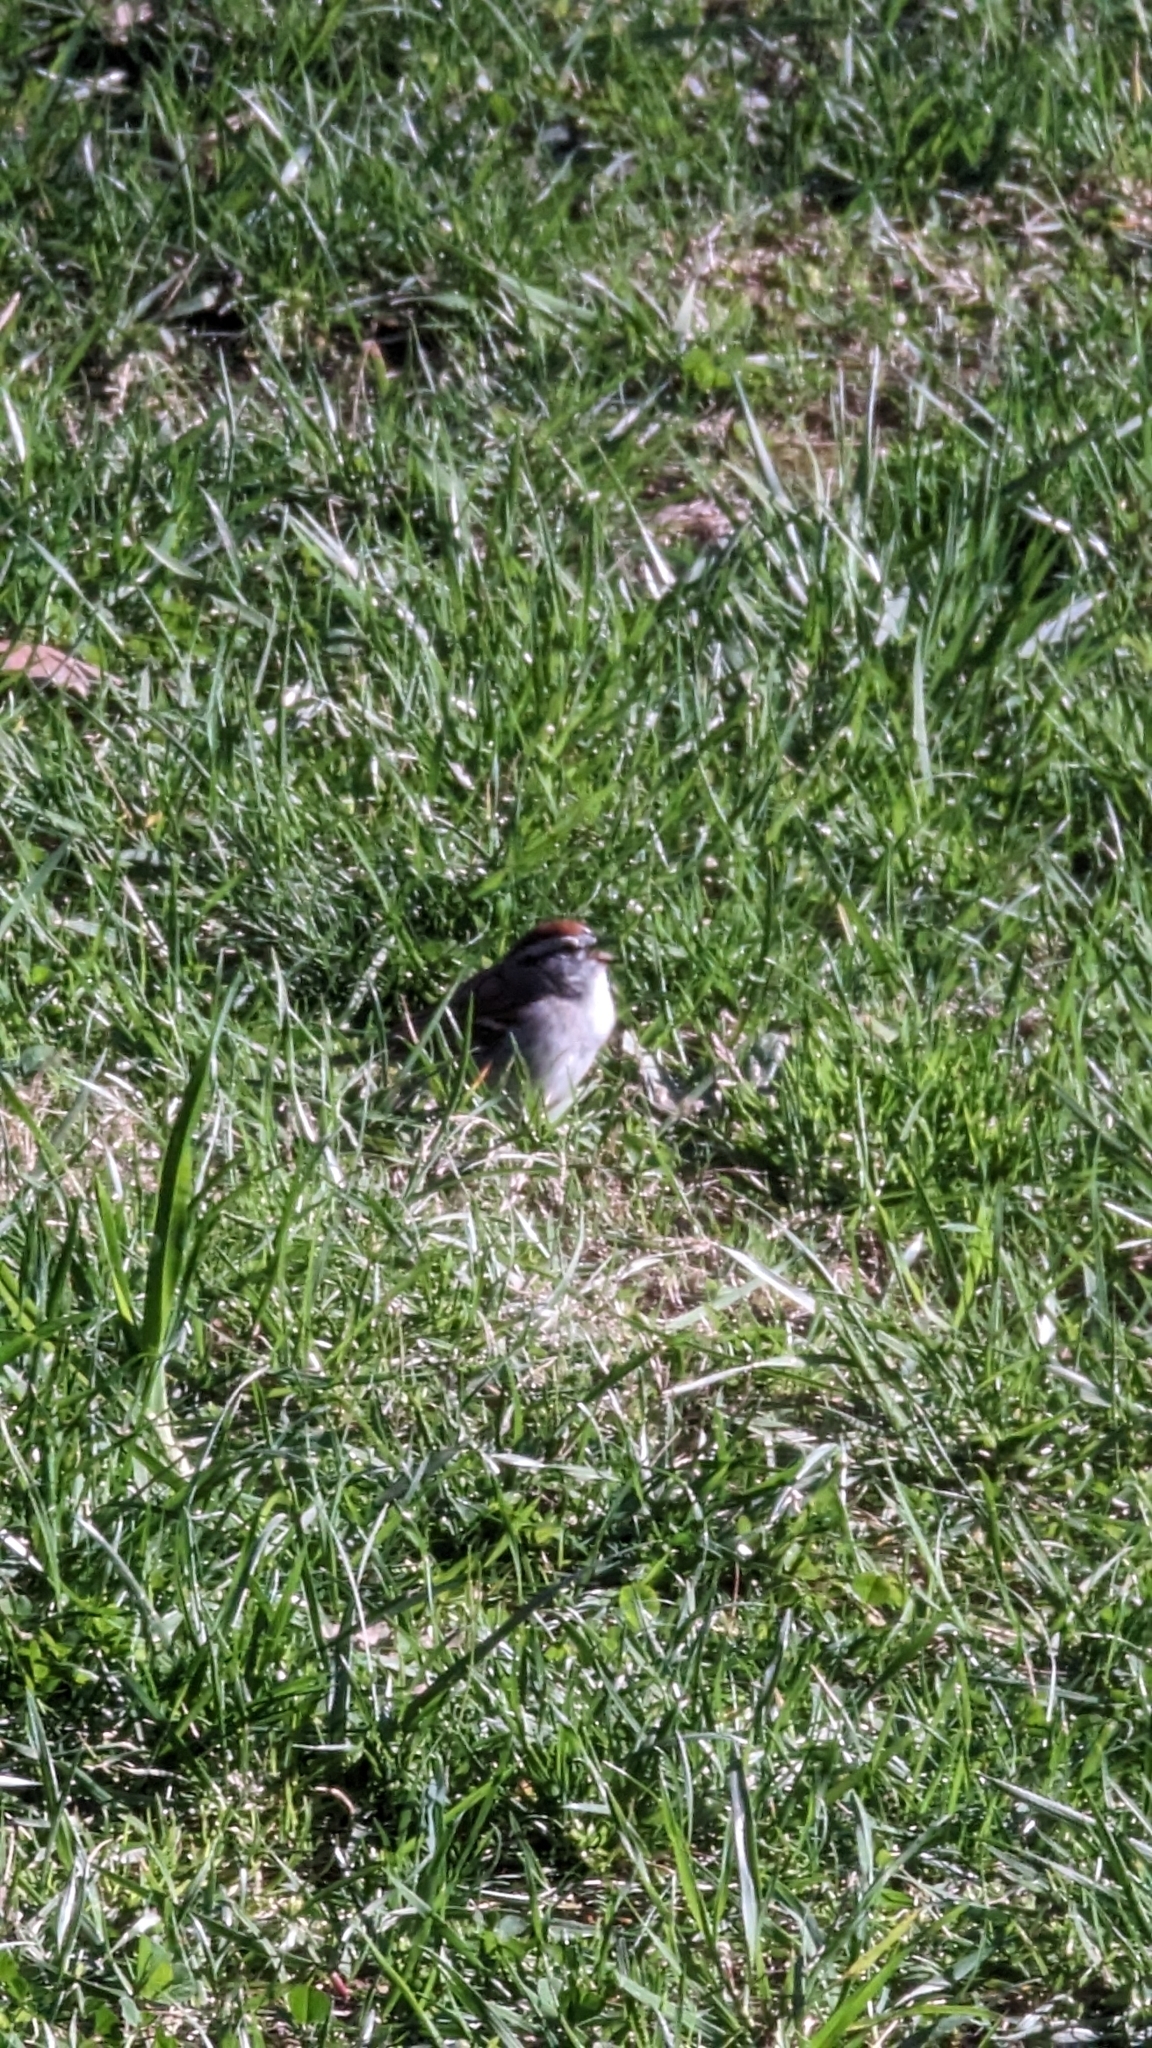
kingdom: Animalia
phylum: Chordata
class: Aves
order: Passeriformes
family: Passerellidae
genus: Spizella
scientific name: Spizella passerina
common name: Chipping sparrow
